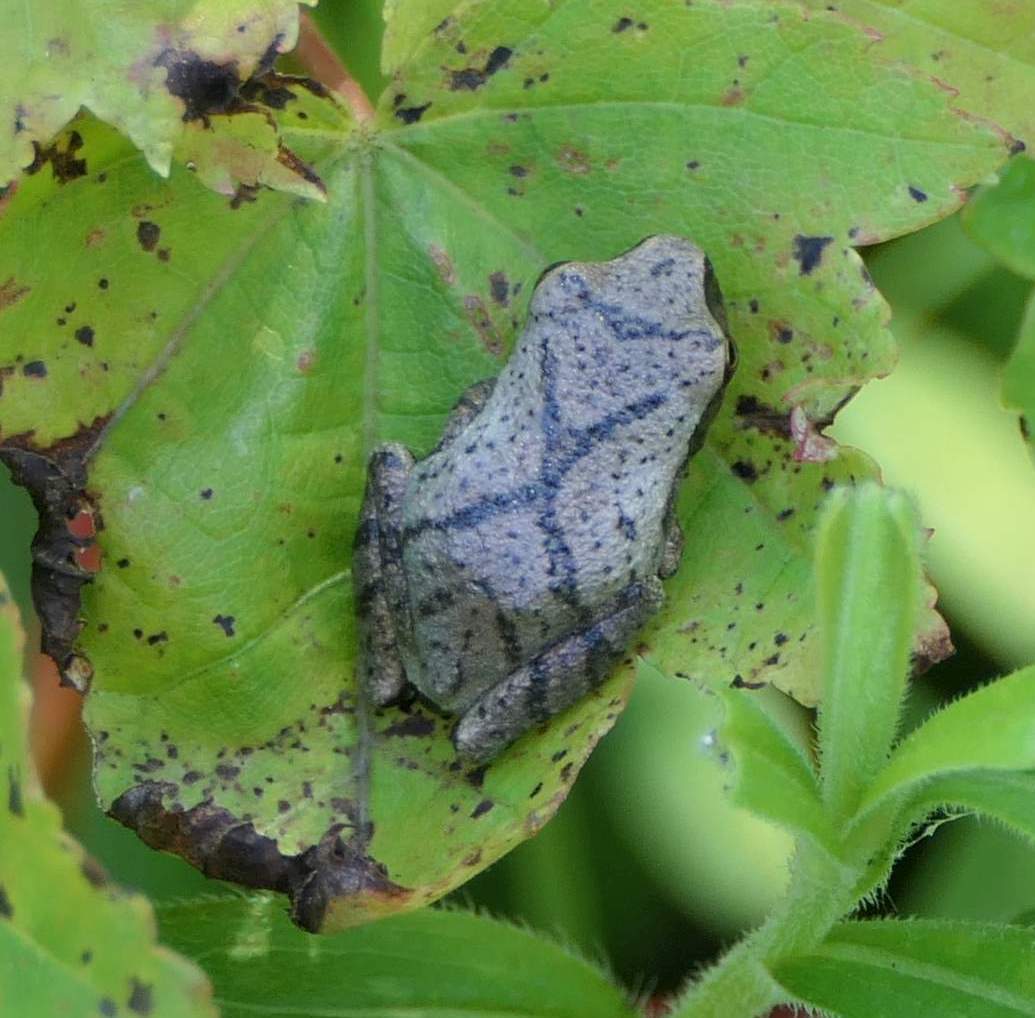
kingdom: Animalia
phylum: Chordata
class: Amphibia
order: Anura
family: Hylidae
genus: Pseudacris
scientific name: Pseudacris crucifer
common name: Spring peeper
